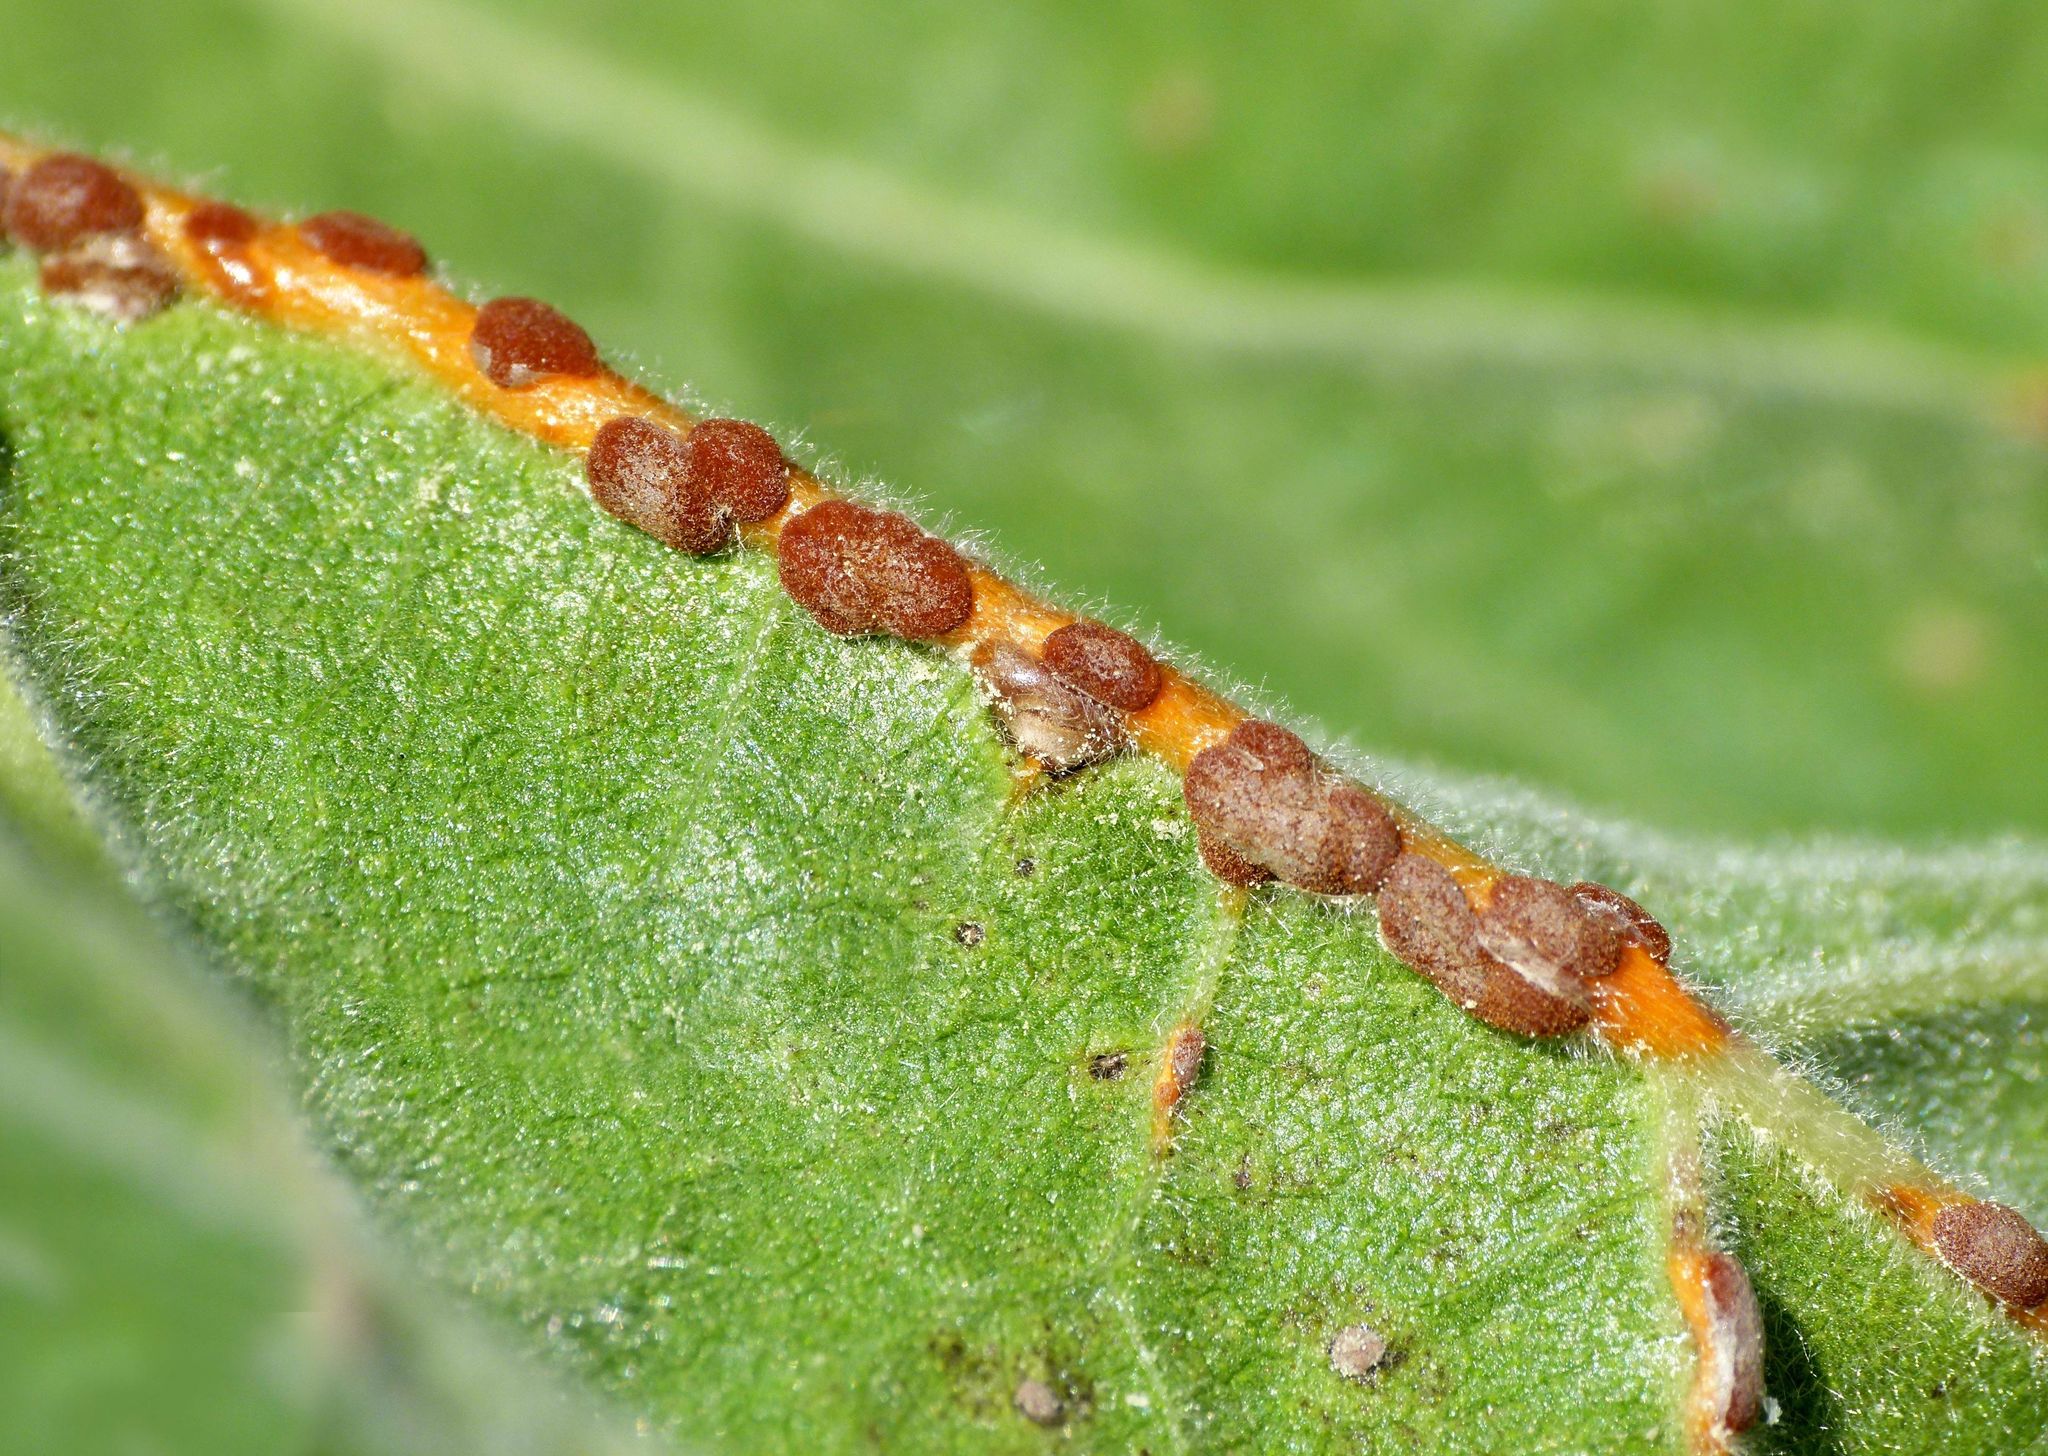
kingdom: Plantae
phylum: Tracheophyta
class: Magnoliopsida
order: Malvales
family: Malvaceae
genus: Malva
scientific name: Malva arborea
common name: Tree mallow
